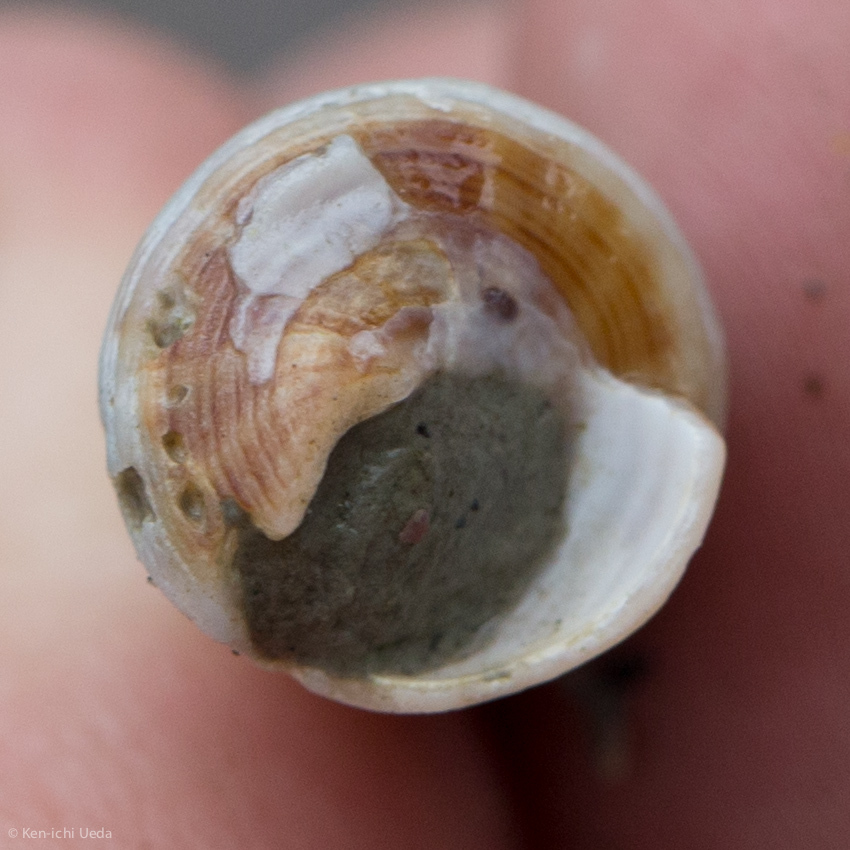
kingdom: Animalia
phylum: Mollusca
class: Gastropoda
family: Turritellidae
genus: Maoricolpus
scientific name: Maoricolpus roseus
